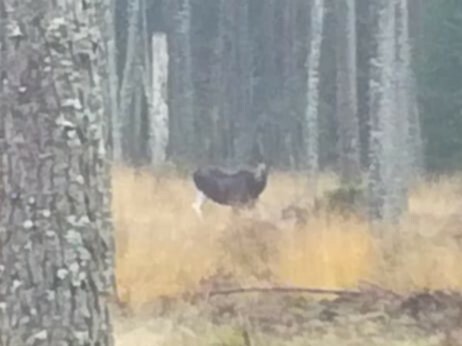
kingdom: Animalia
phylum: Chordata
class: Mammalia
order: Artiodactyla
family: Cervidae
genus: Alces
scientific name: Alces alces
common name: Moose
